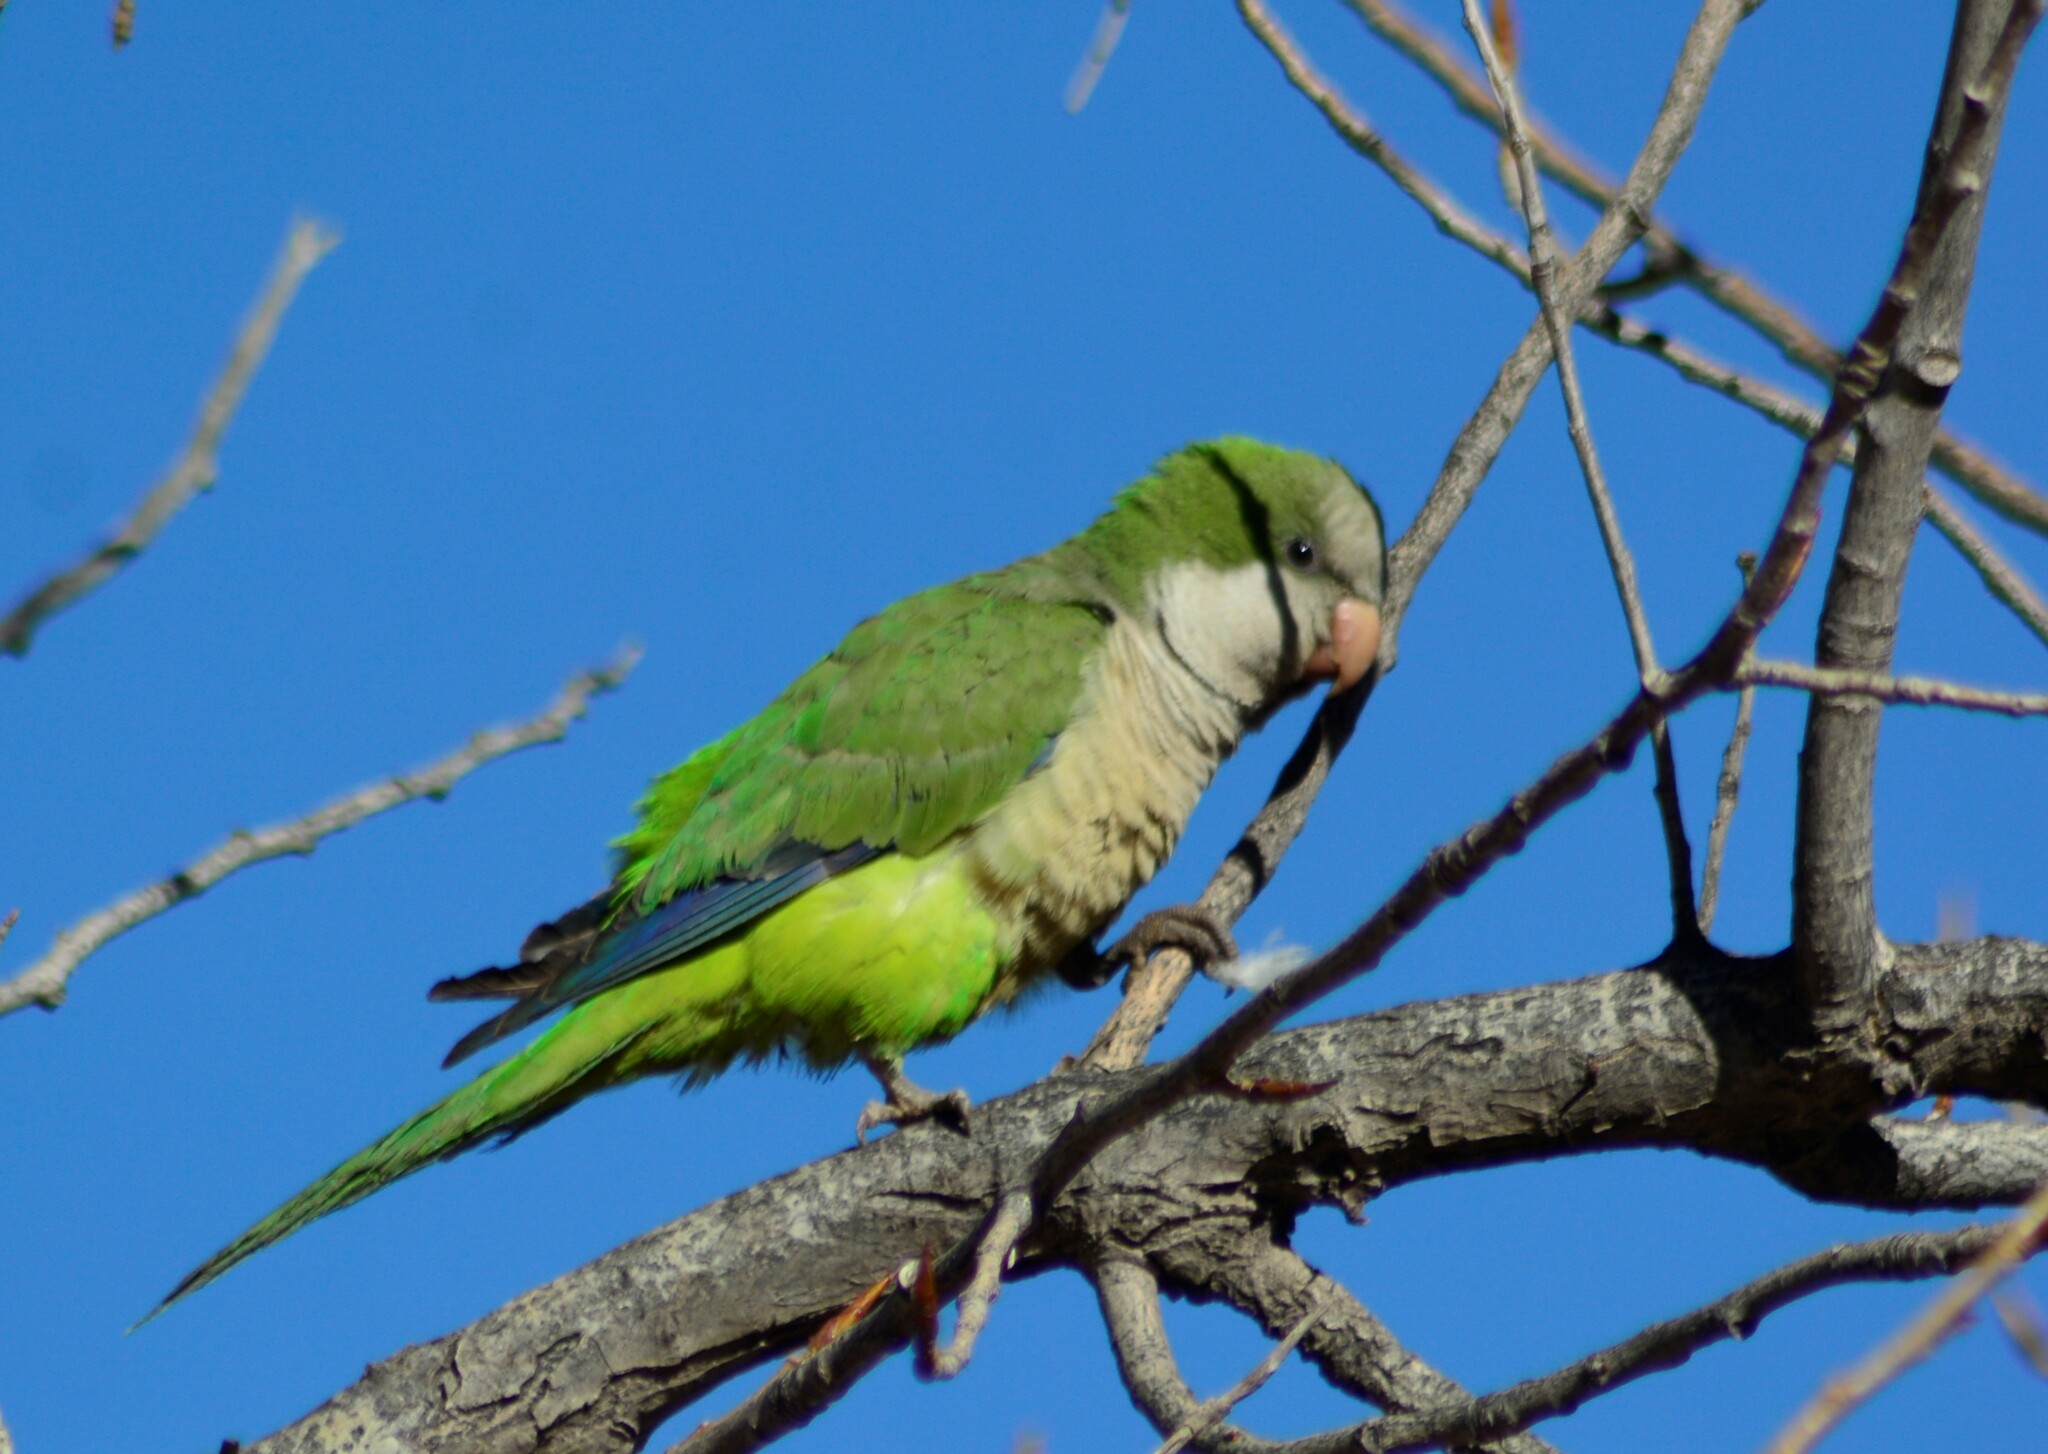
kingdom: Animalia
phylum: Chordata
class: Aves
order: Psittaciformes
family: Psittacidae
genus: Myiopsitta
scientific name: Myiopsitta monachus
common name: Monk parakeet
